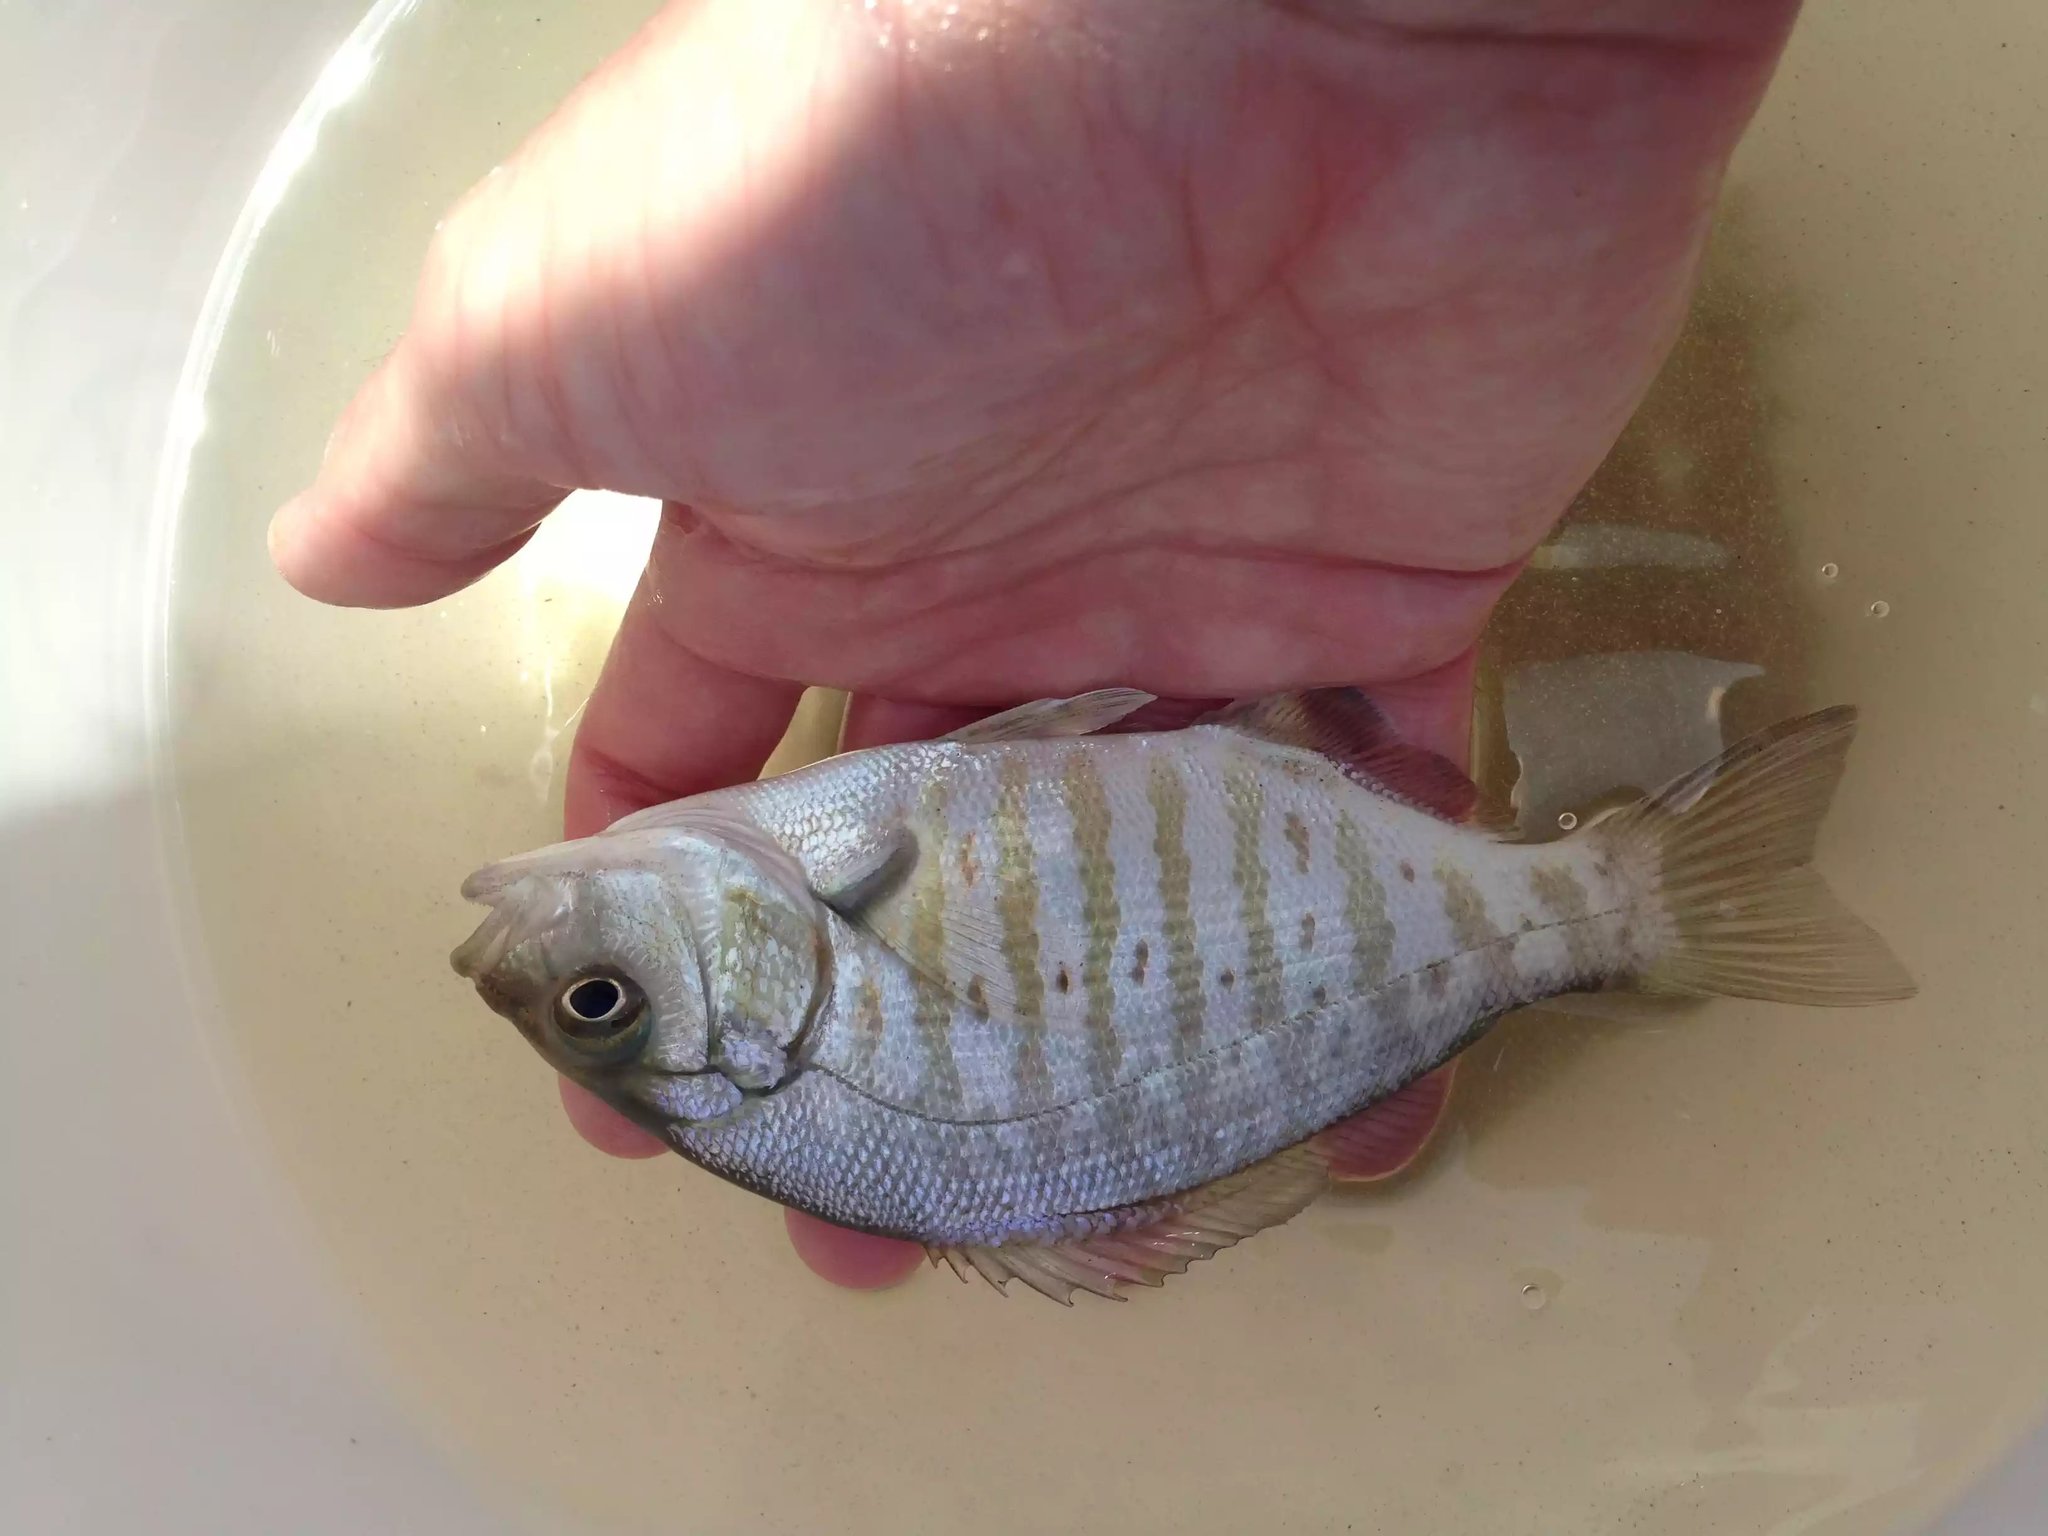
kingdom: Animalia
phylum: Chordata
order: Perciformes
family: Embiotocidae
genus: Amphistichus
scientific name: Amphistichus argenteus
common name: Barred surfperch
